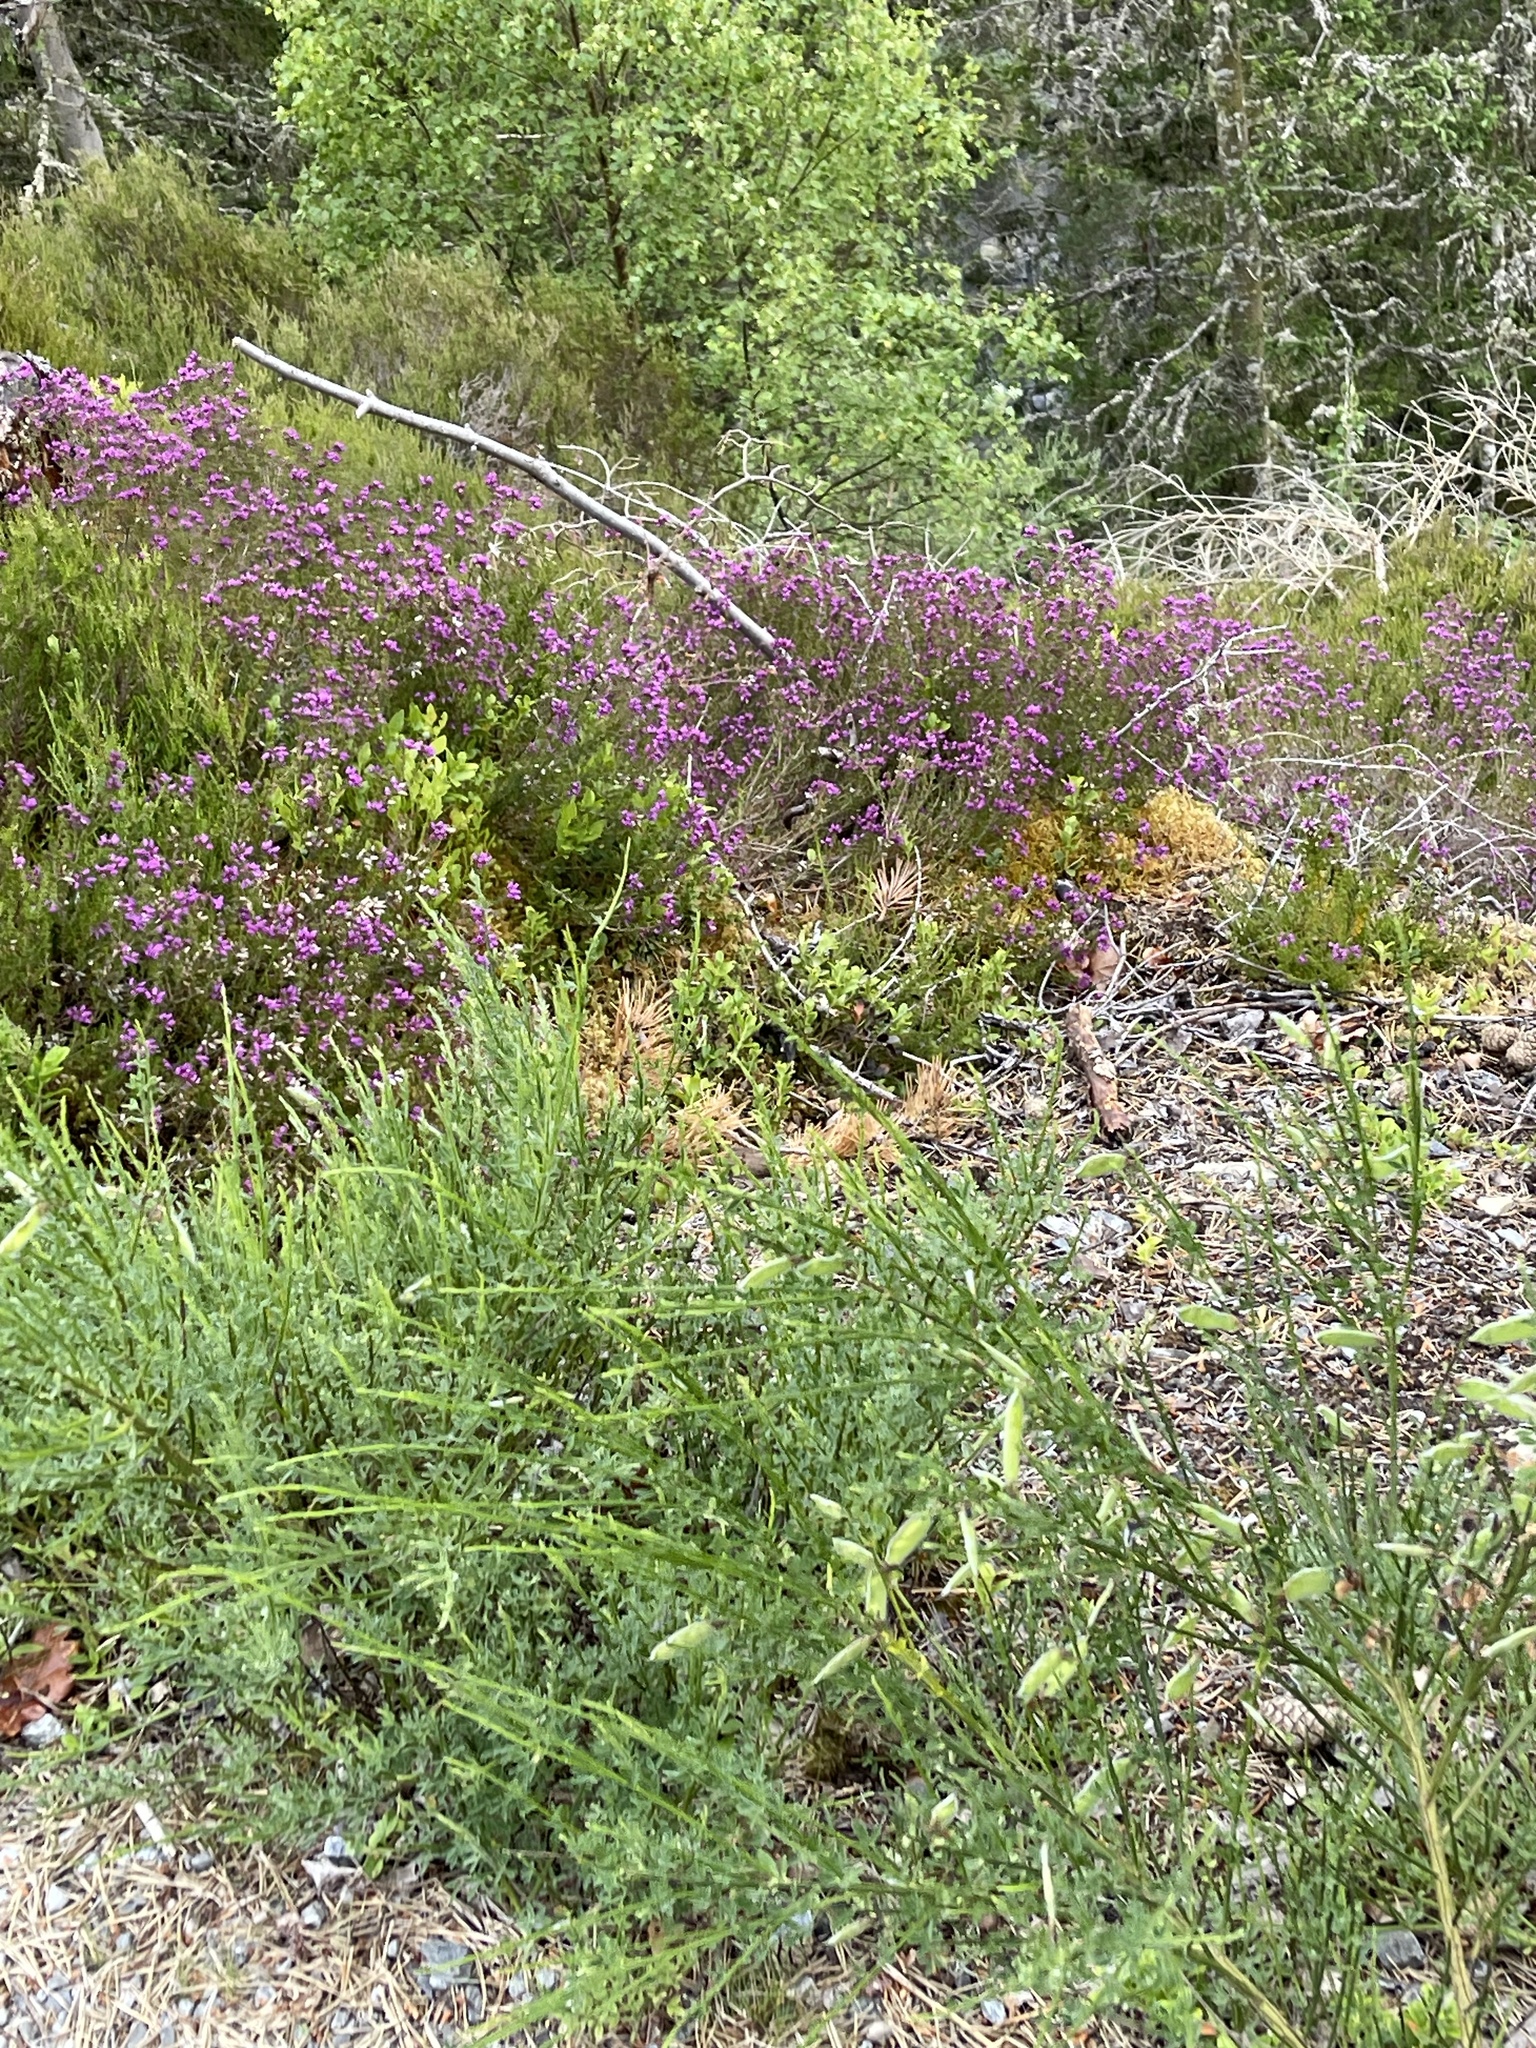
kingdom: Plantae
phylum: Tracheophyta
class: Magnoliopsida
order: Ericales
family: Ericaceae
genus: Calluna
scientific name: Calluna vulgaris
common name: Heather
